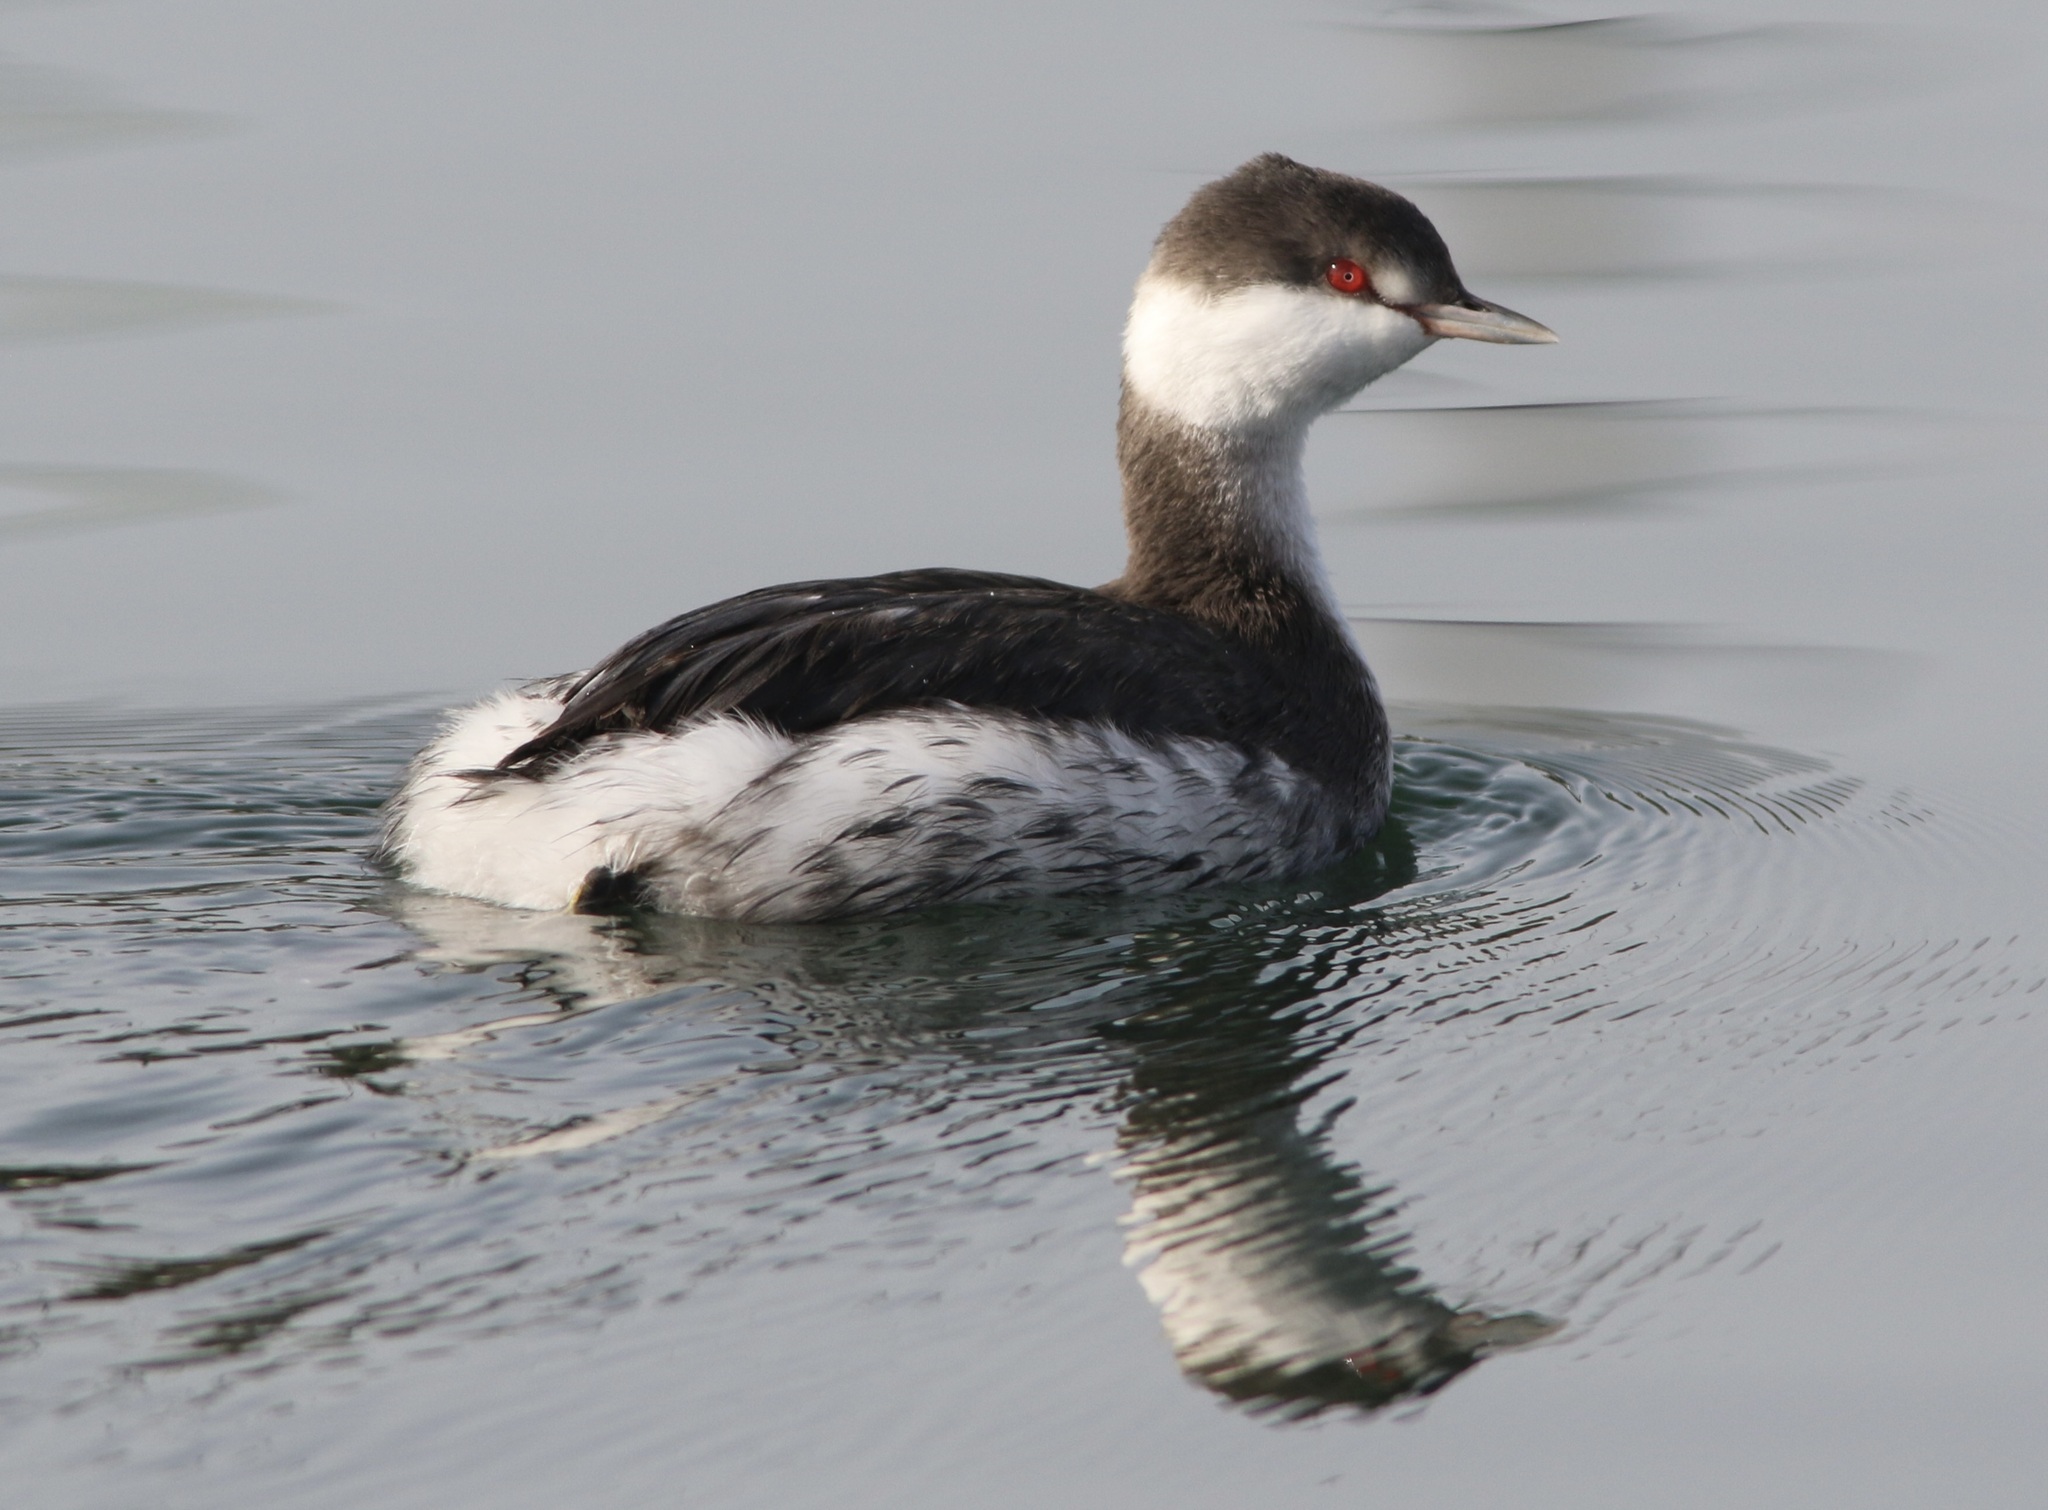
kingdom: Animalia
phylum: Chordata
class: Aves
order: Podicipediformes
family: Podicipedidae
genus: Podiceps
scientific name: Podiceps auritus
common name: Horned grebe
